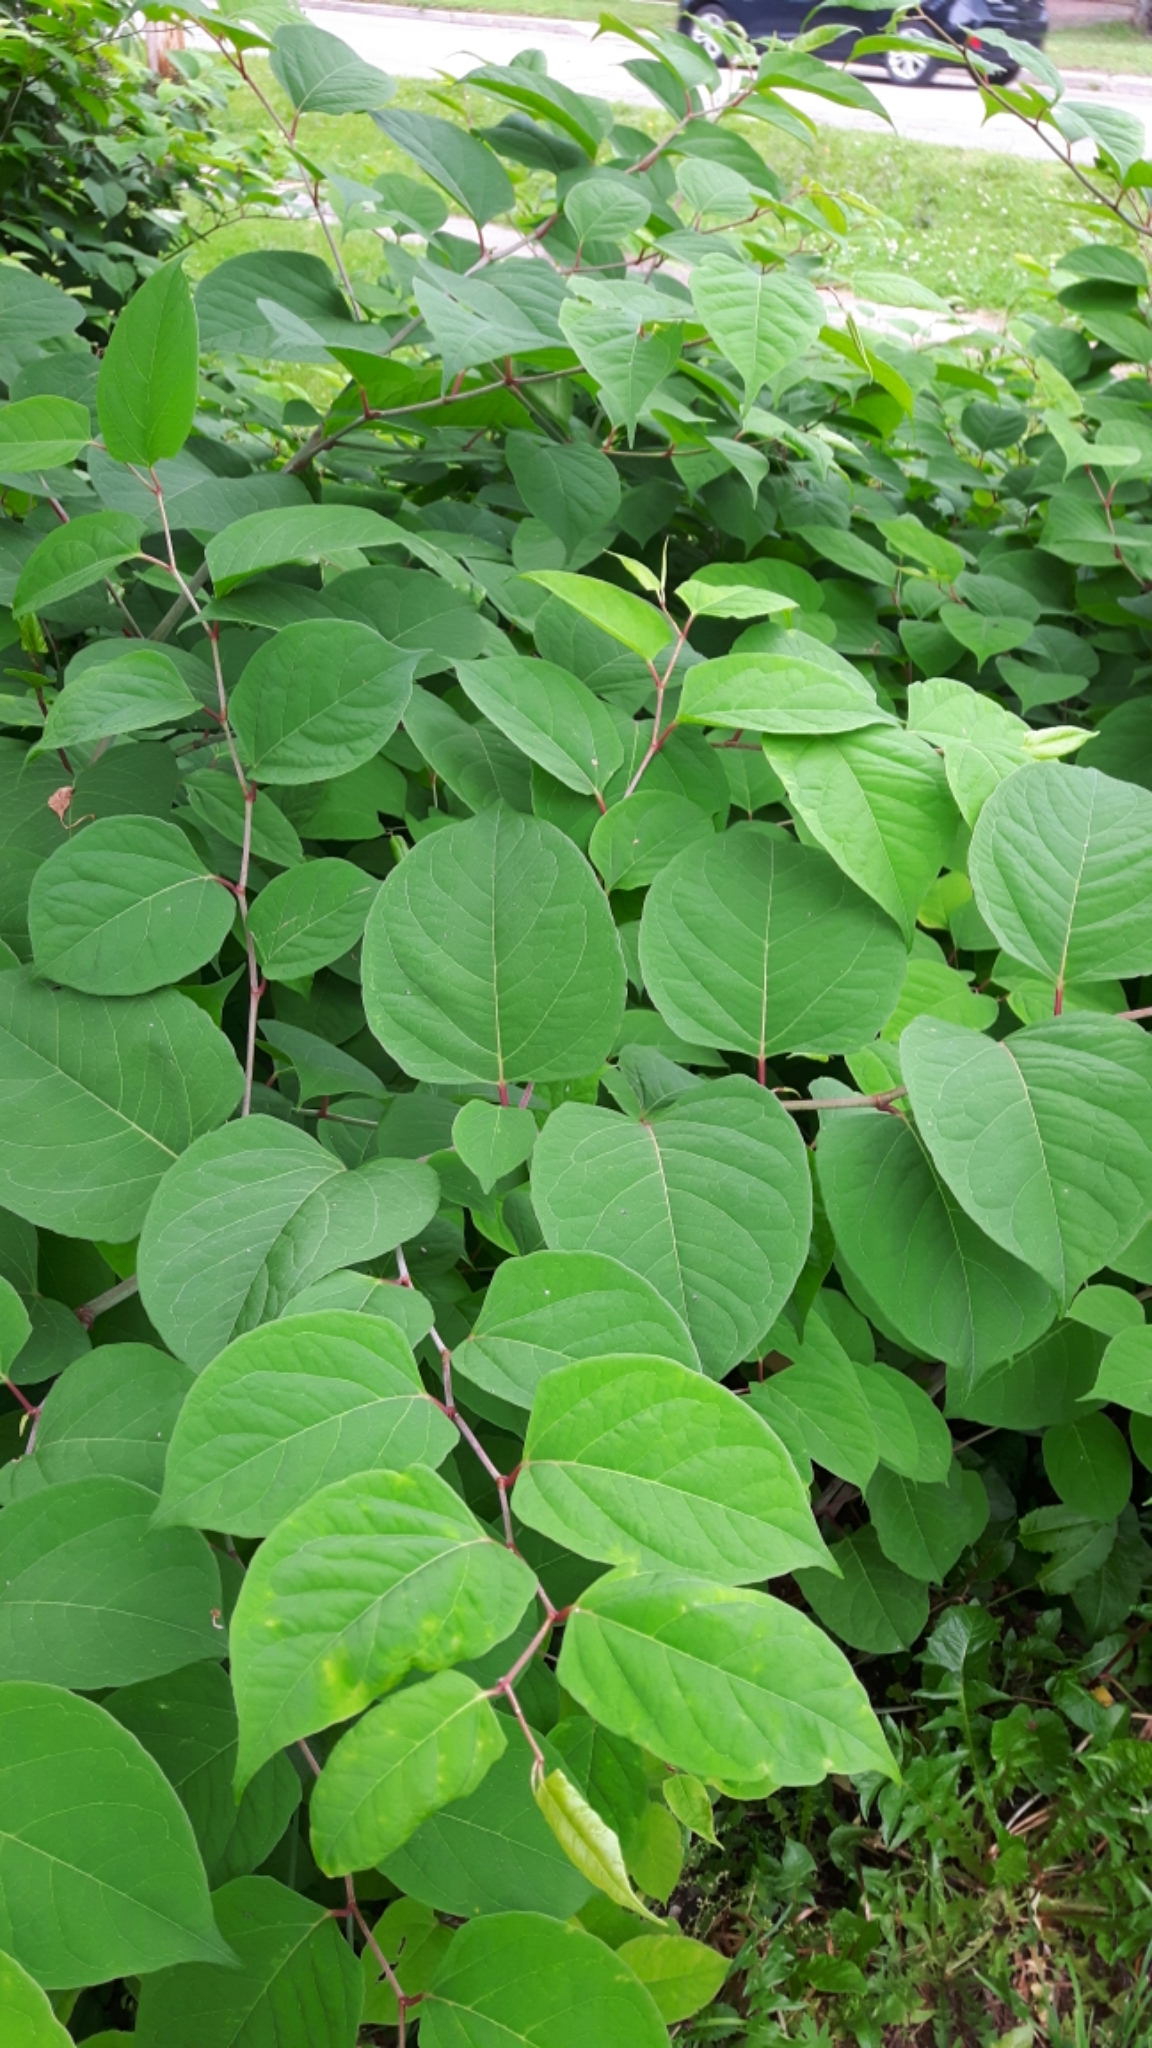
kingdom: Plantae
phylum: Tracheophyta
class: Magnoliopsida
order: Caryophyllales
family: Polygonaceae
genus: Reynoutria
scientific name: Reynoutria japonica
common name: Japanese knotweed
